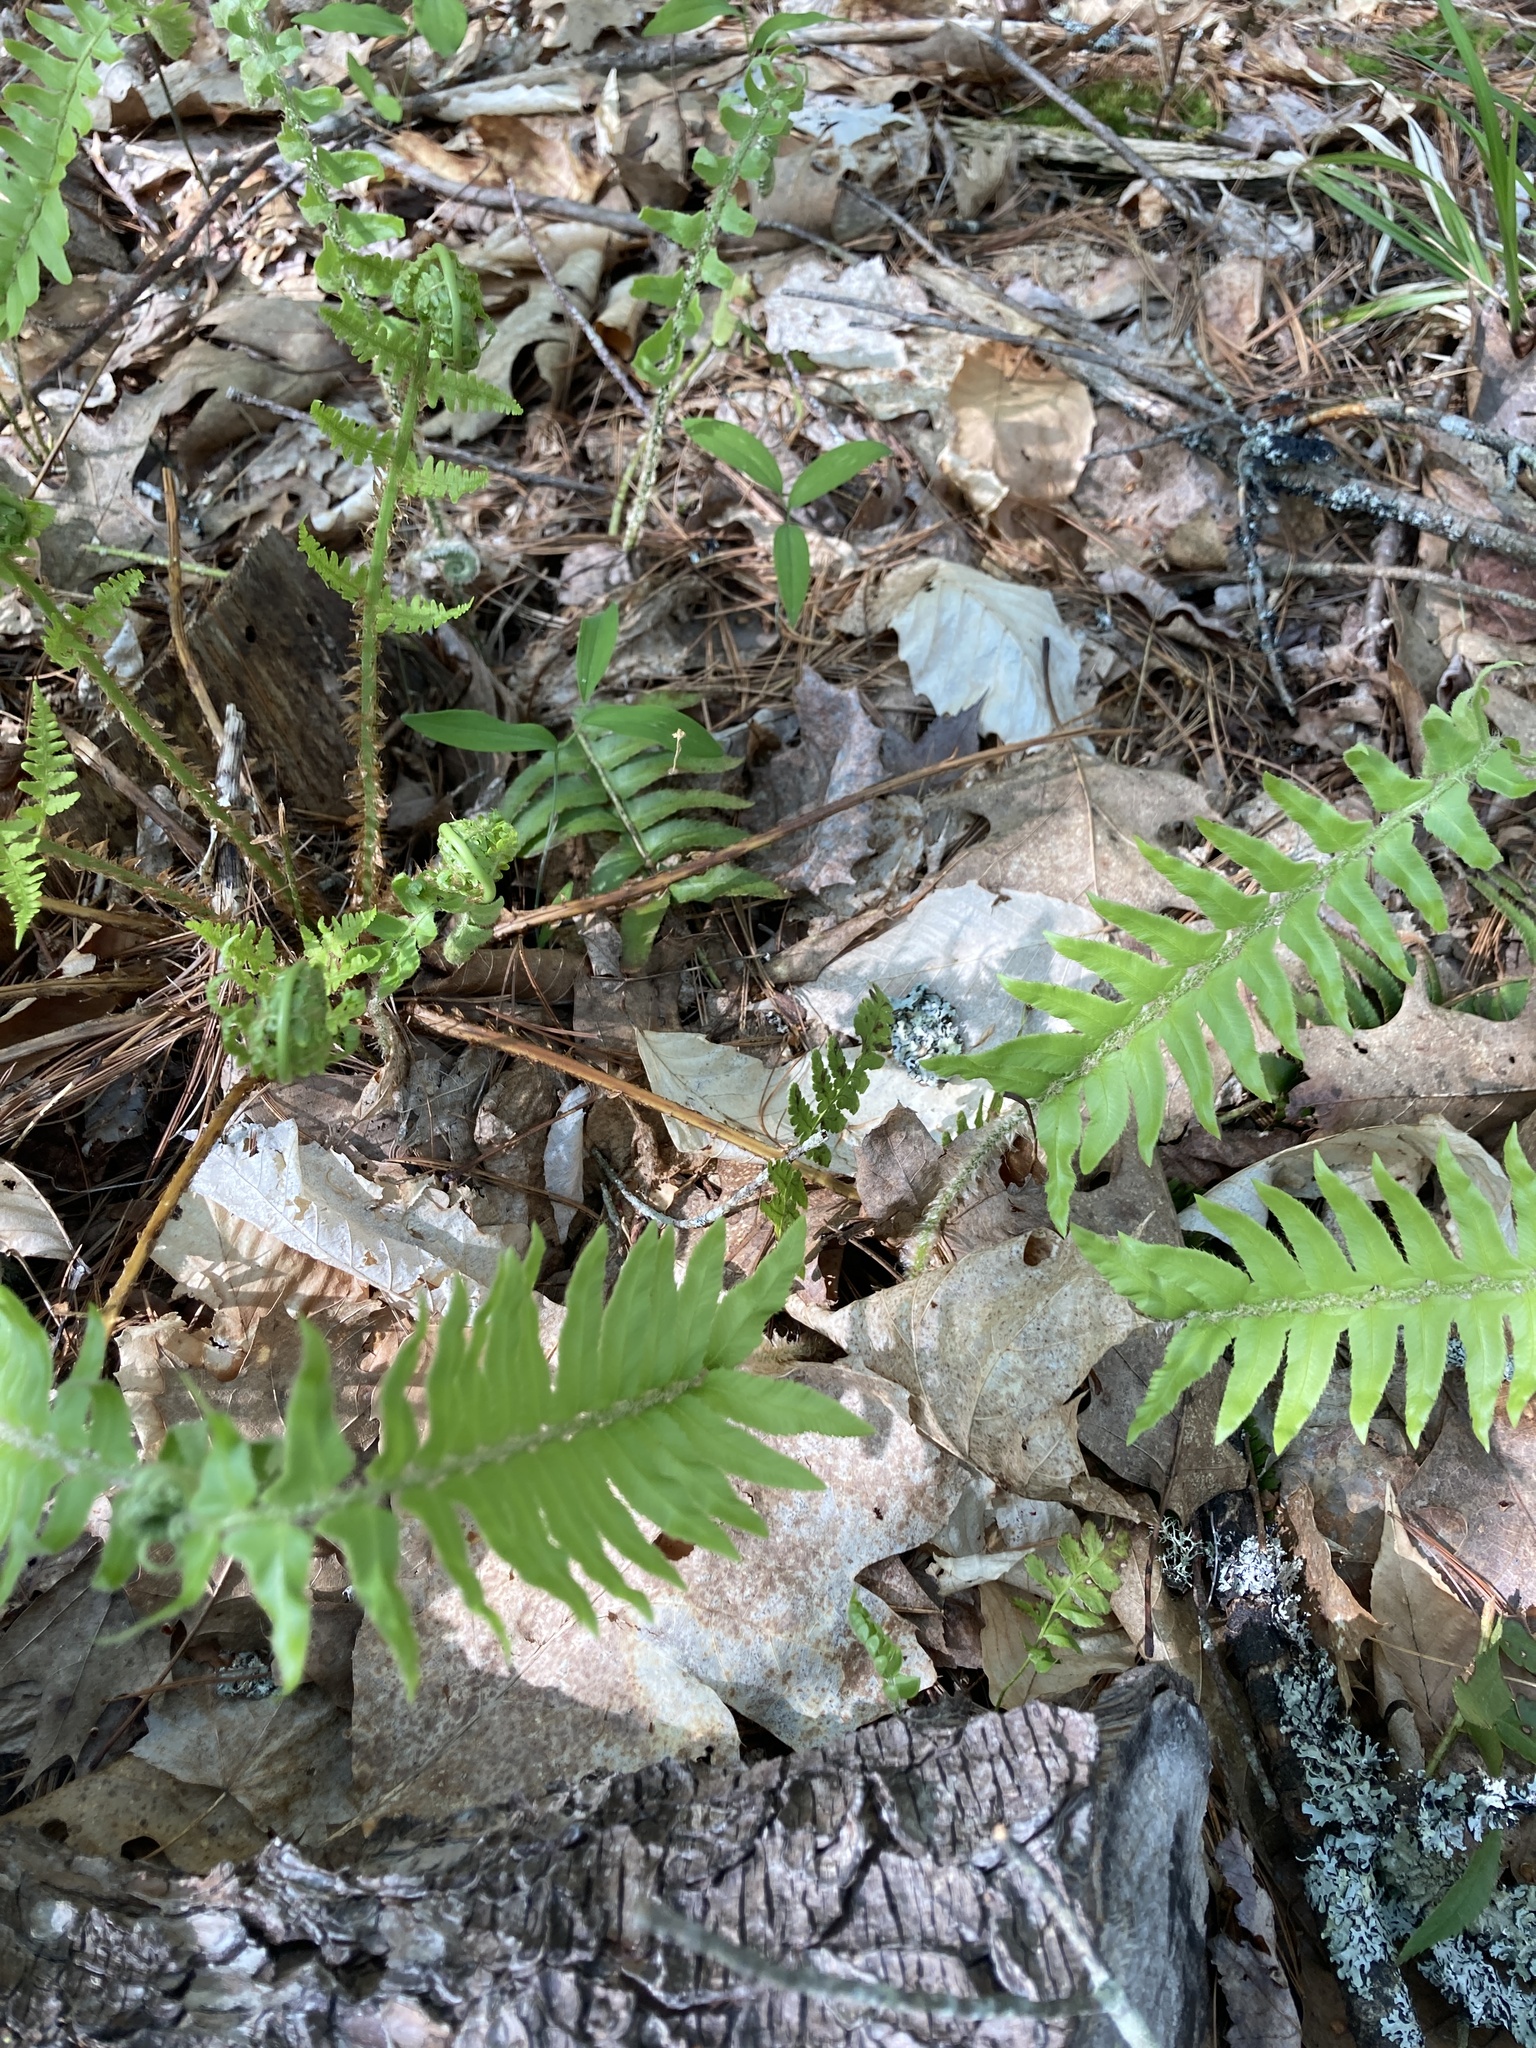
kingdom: Plantae
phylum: Tracheophyta
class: Polypodiopsida
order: Polypodiales
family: Dryopteridaceae
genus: Polystichum
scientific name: Polystichum acrostichoides
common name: Christmas fern
